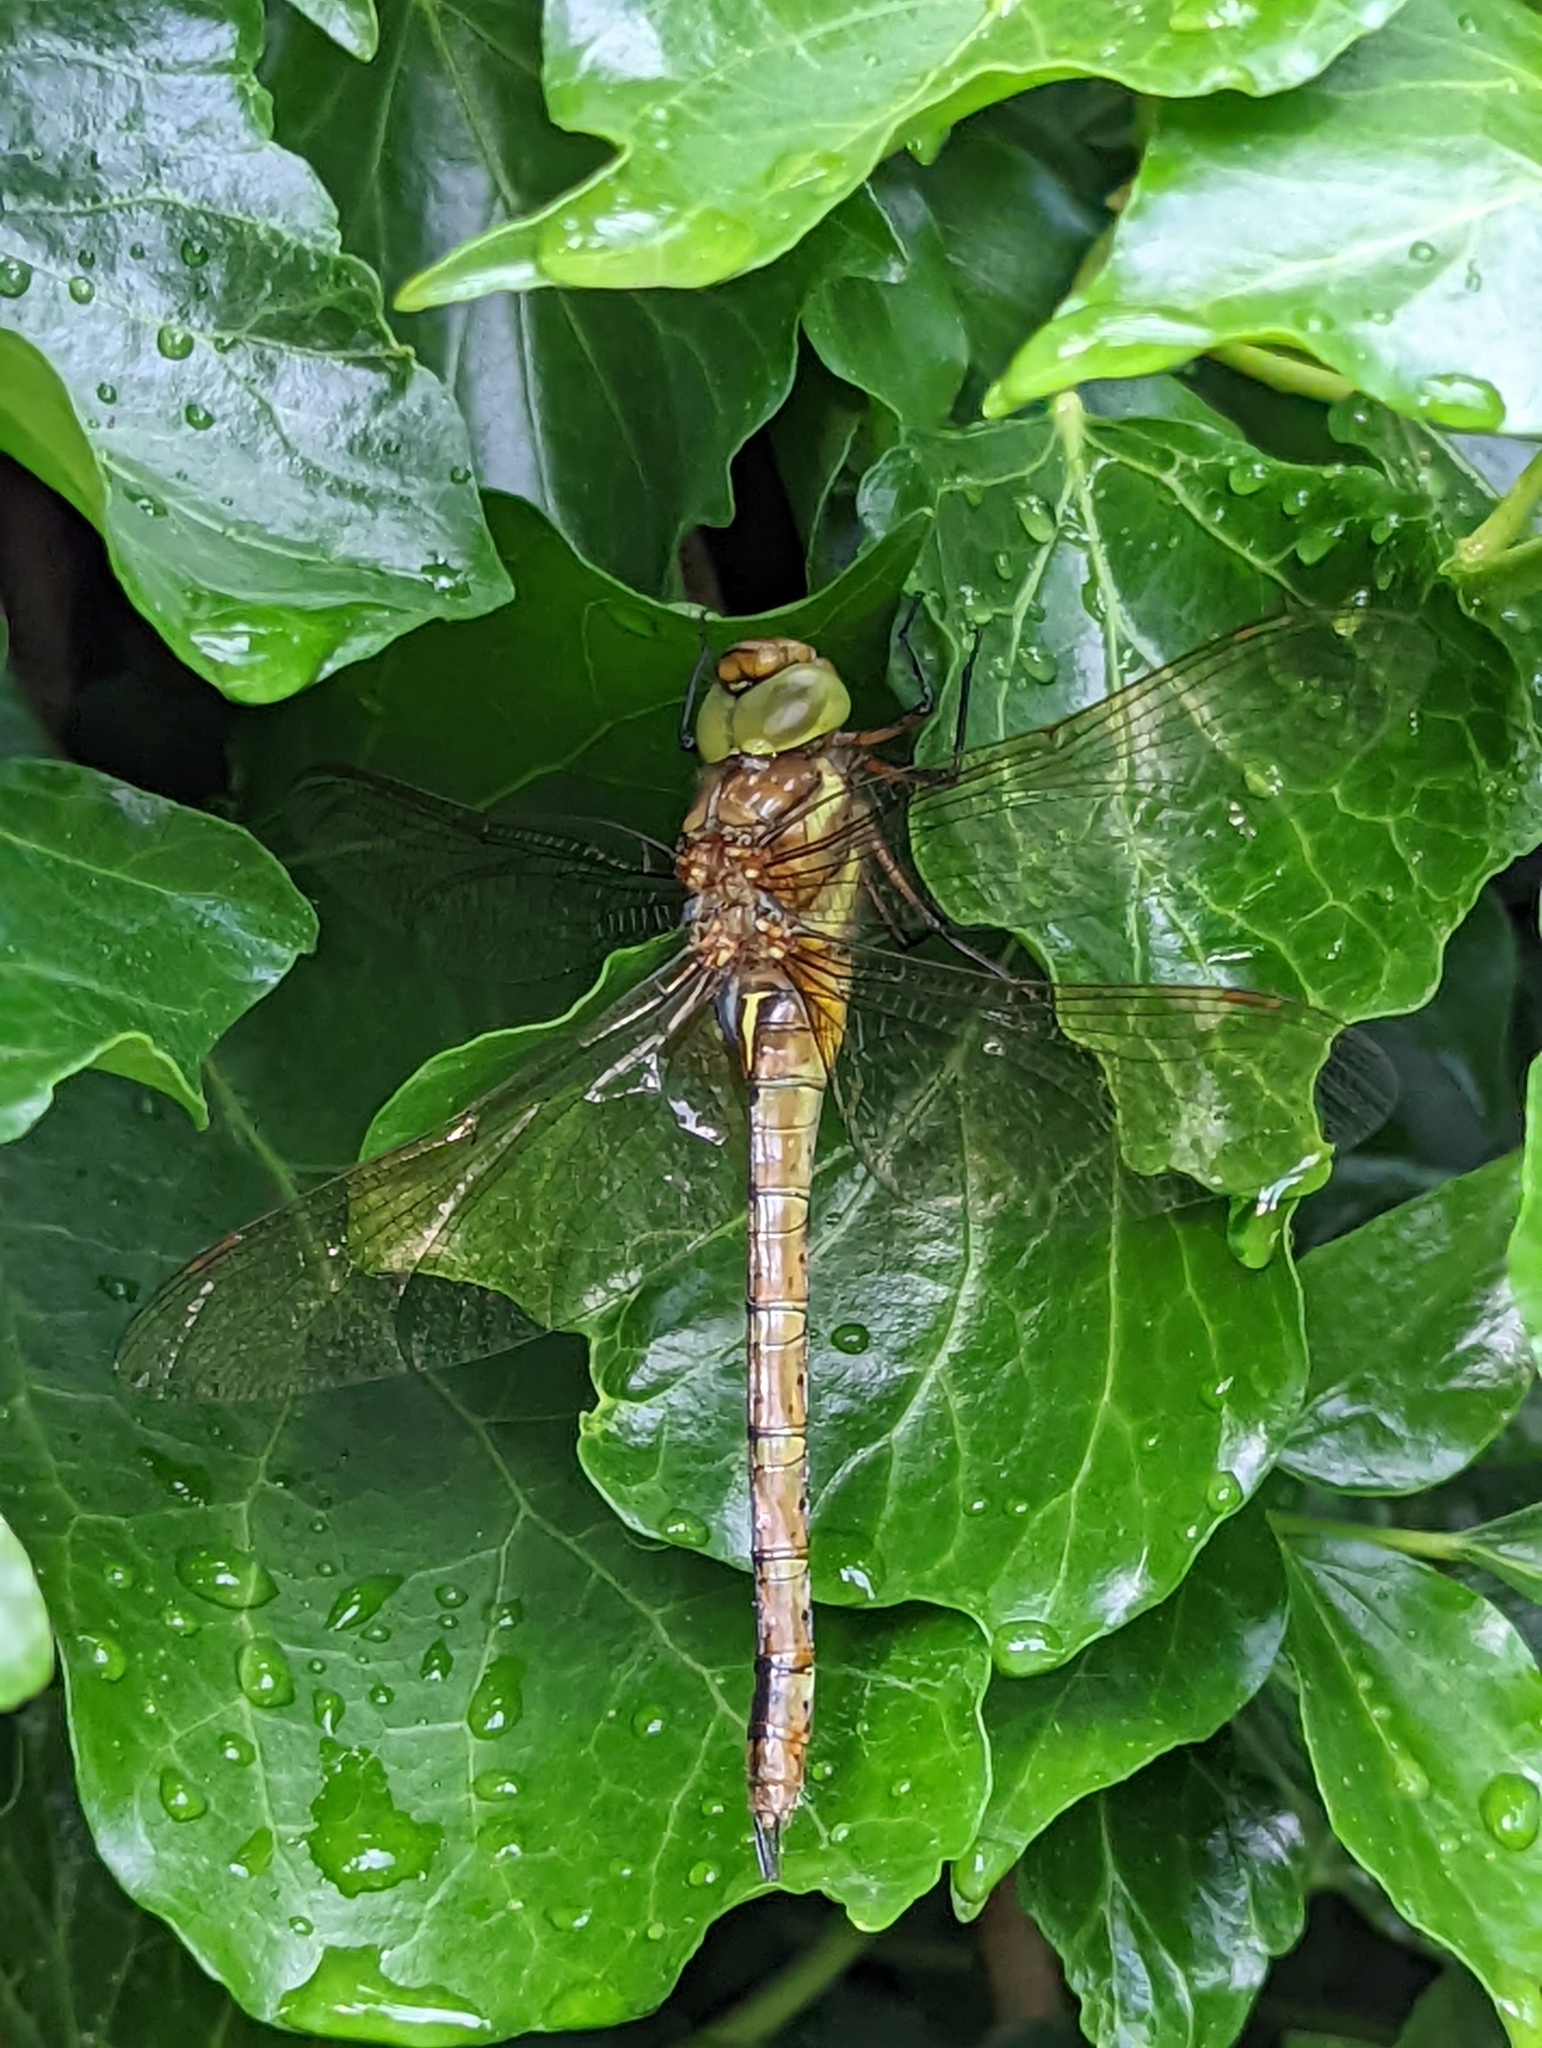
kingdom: Animalia
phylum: Arthropoda
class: Insecta
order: Odonata
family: Aeshnidae
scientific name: Aeshnidae
